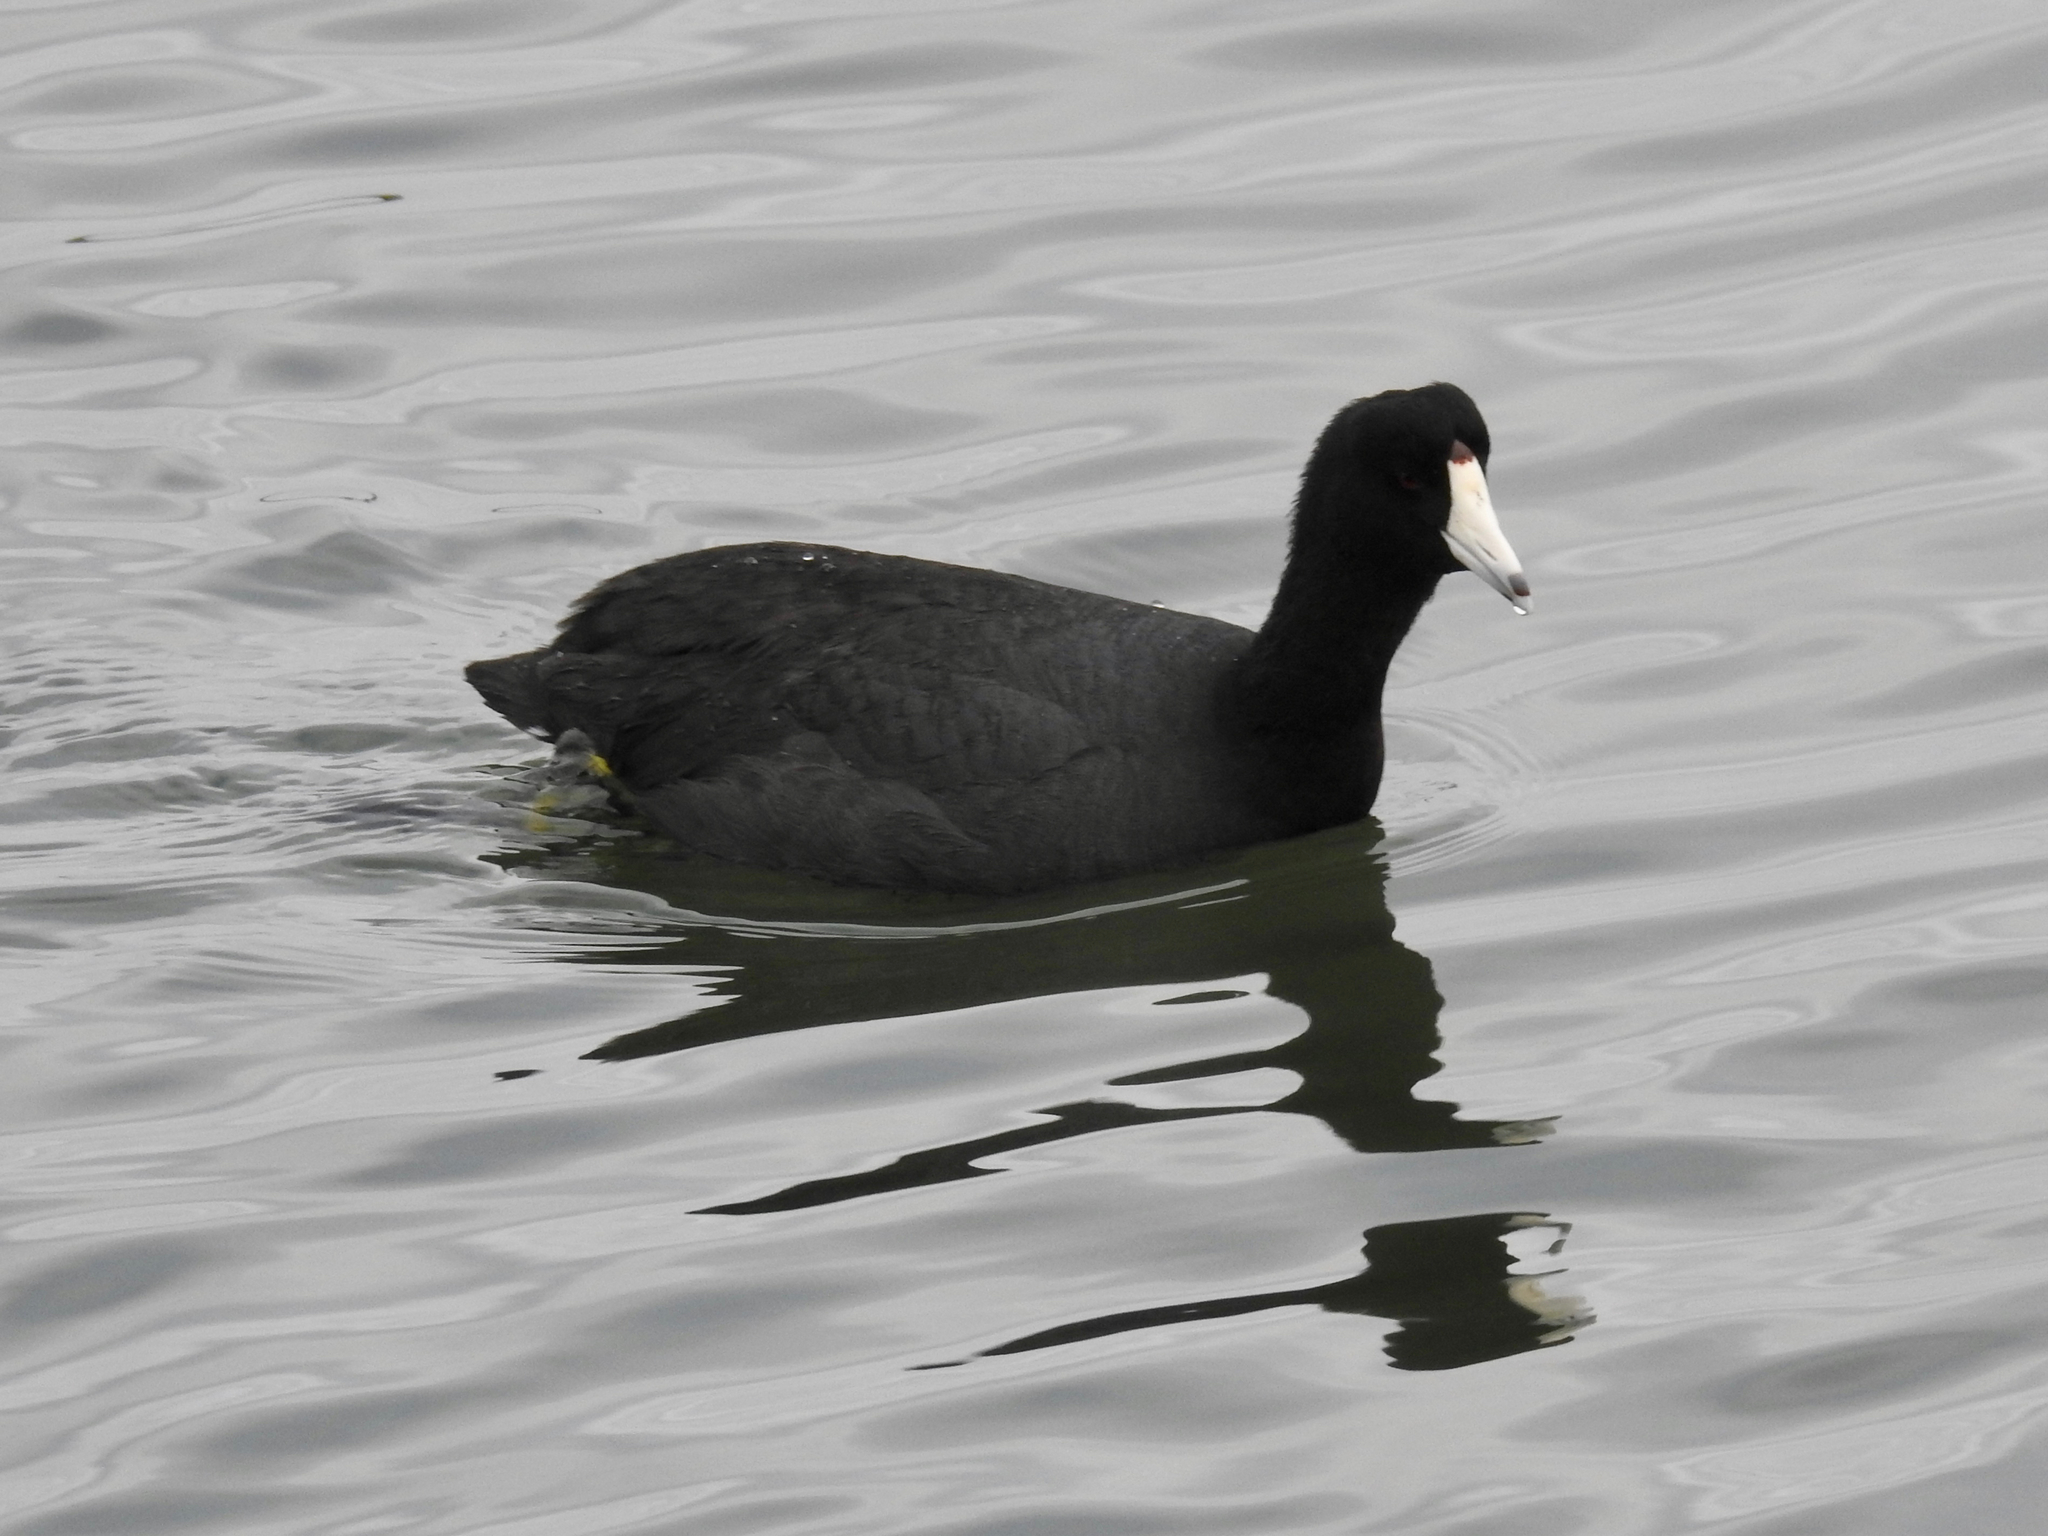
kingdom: Animalia
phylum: Chordata
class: Aves
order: Gruiformes
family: Rallidae
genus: Fulica
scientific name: Fulica americana
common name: American coot
